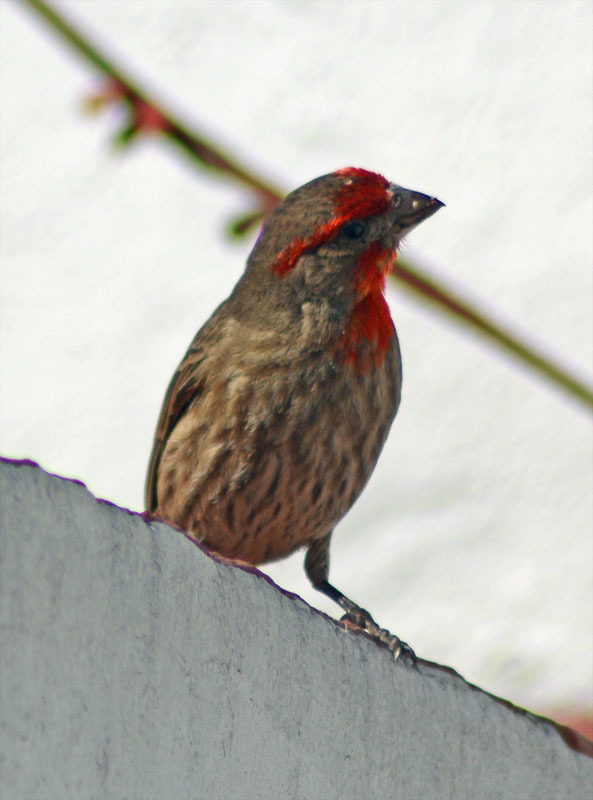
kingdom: Animalia
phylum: Chordata
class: Aves
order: Passeriformes
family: Fringillidae
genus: Haemorhous
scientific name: Haemorhous mexicanus
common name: House finch
